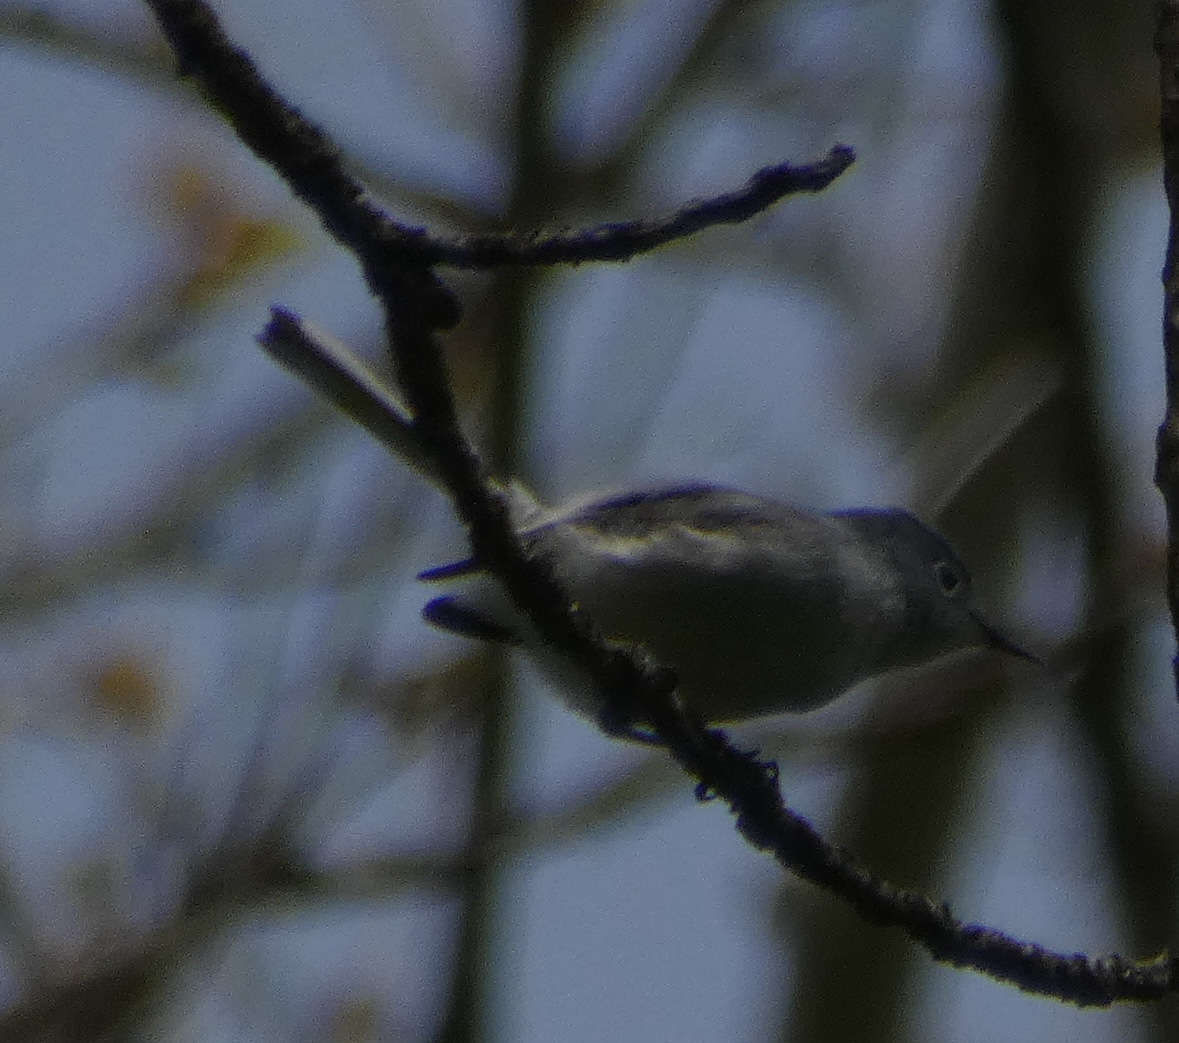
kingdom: Animalia
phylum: Chordata
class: Aves
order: Passeriformes
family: Polioptilidae
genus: Polioptila
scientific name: Polioptila caerulea
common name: Blue-gray gnatcatcher
